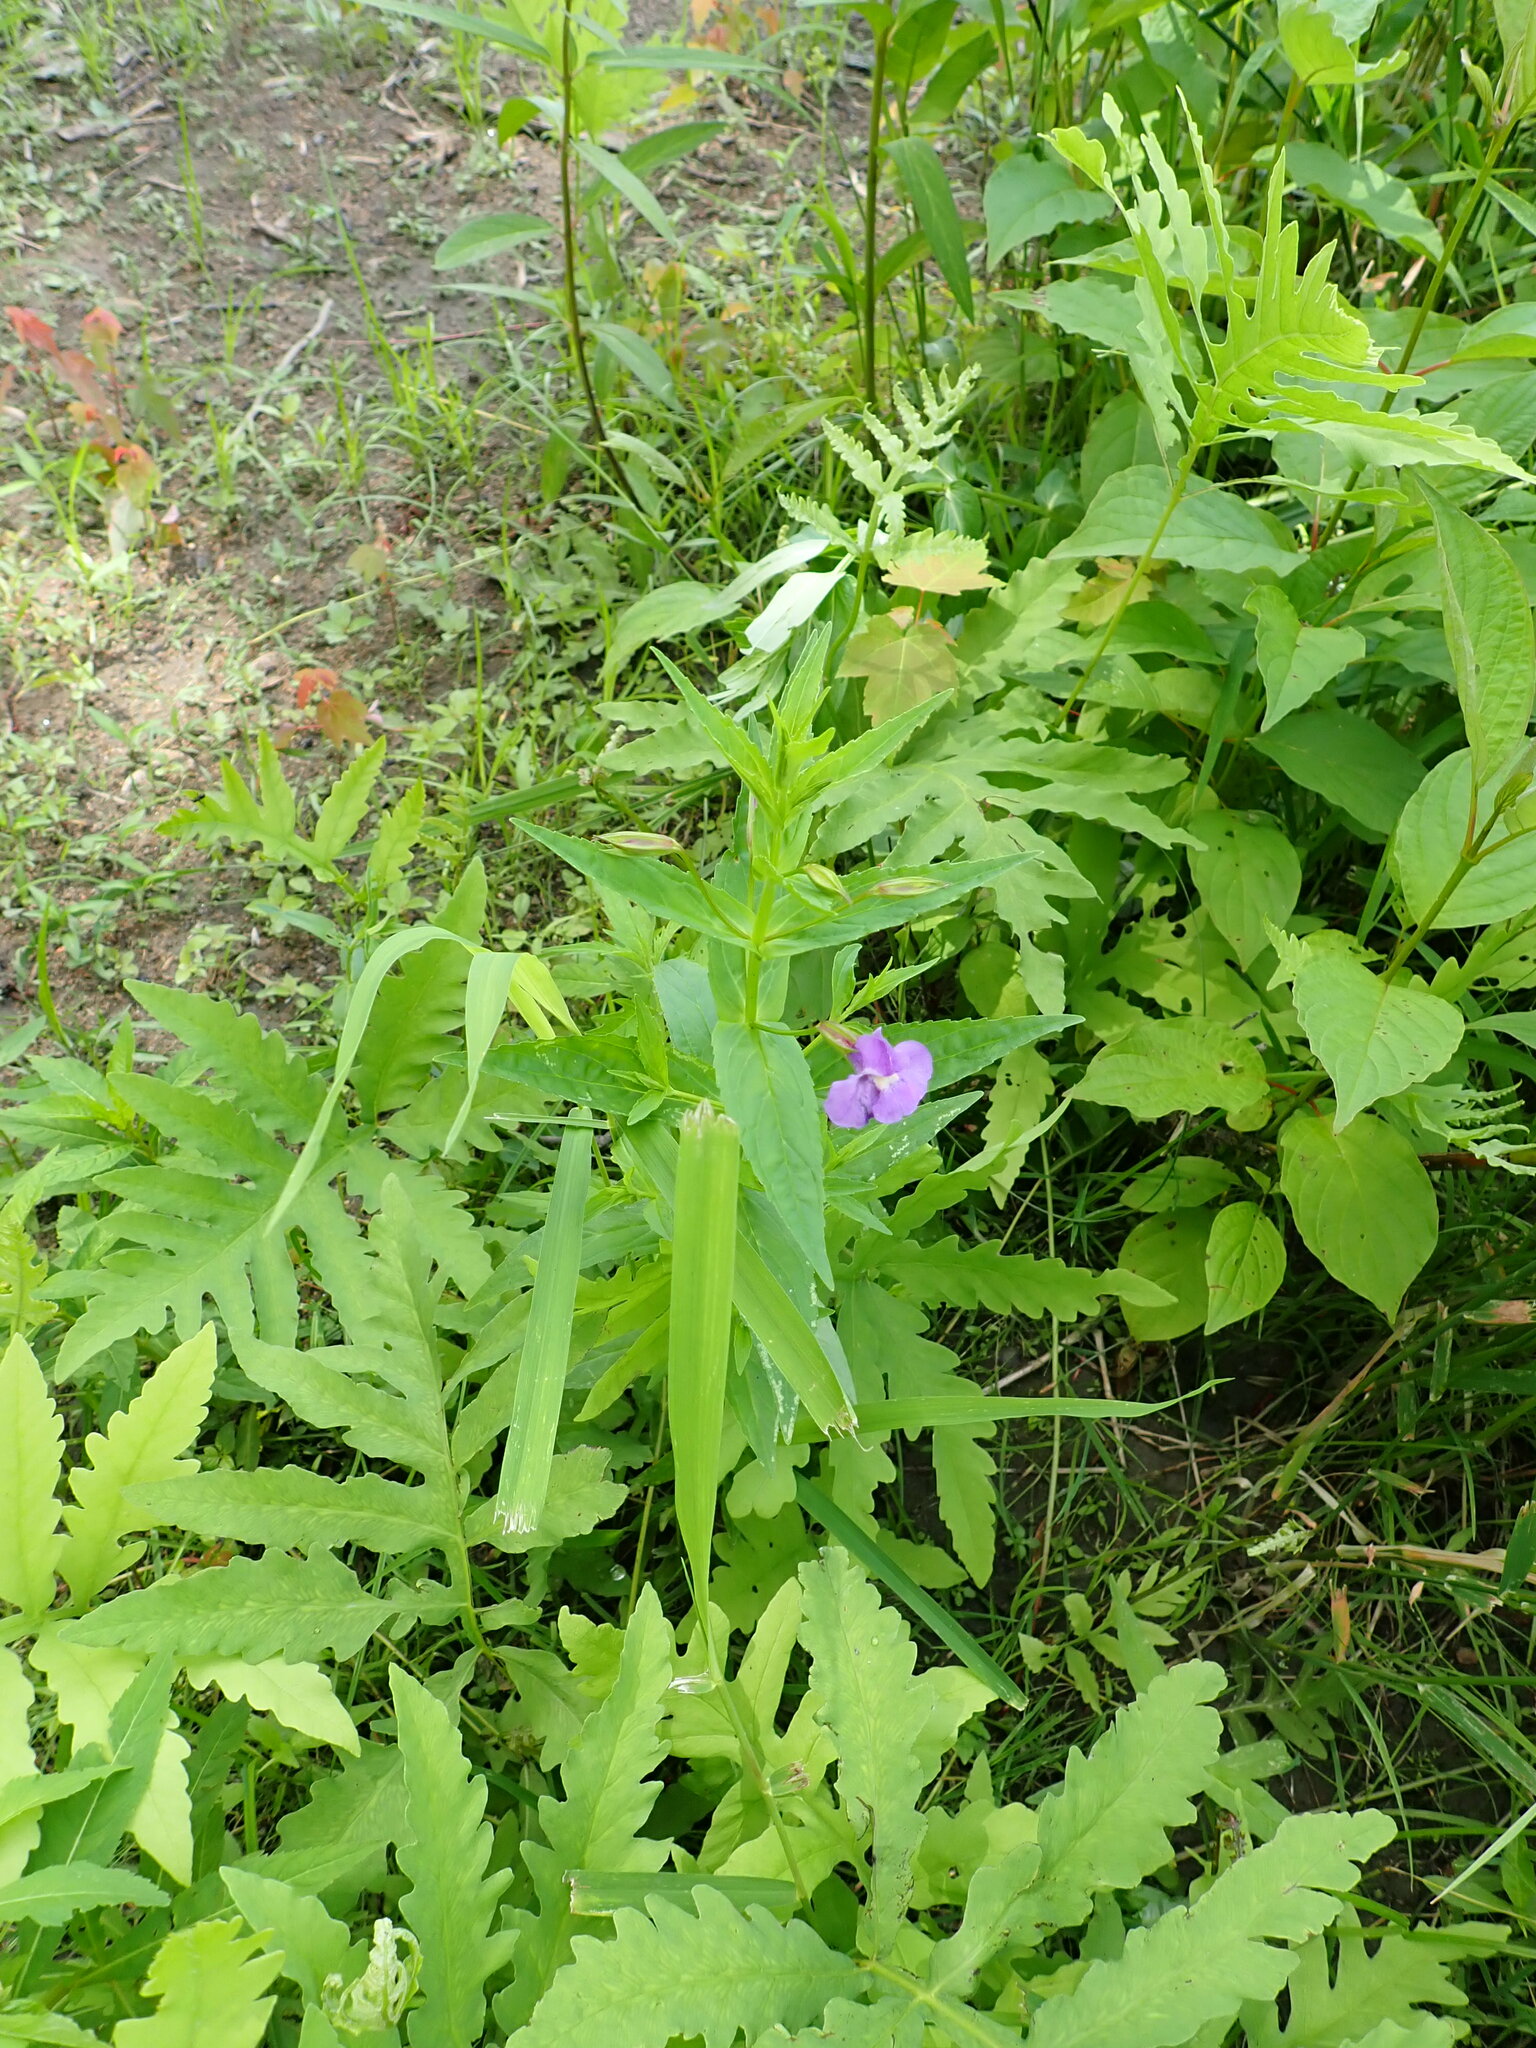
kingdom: Plantae
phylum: Tracheophyta
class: Magnoliopsida
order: Lamiales
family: Phrymaceae
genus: Mimulus
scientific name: Mimulus ringens
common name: Allegheny monkeyflower
